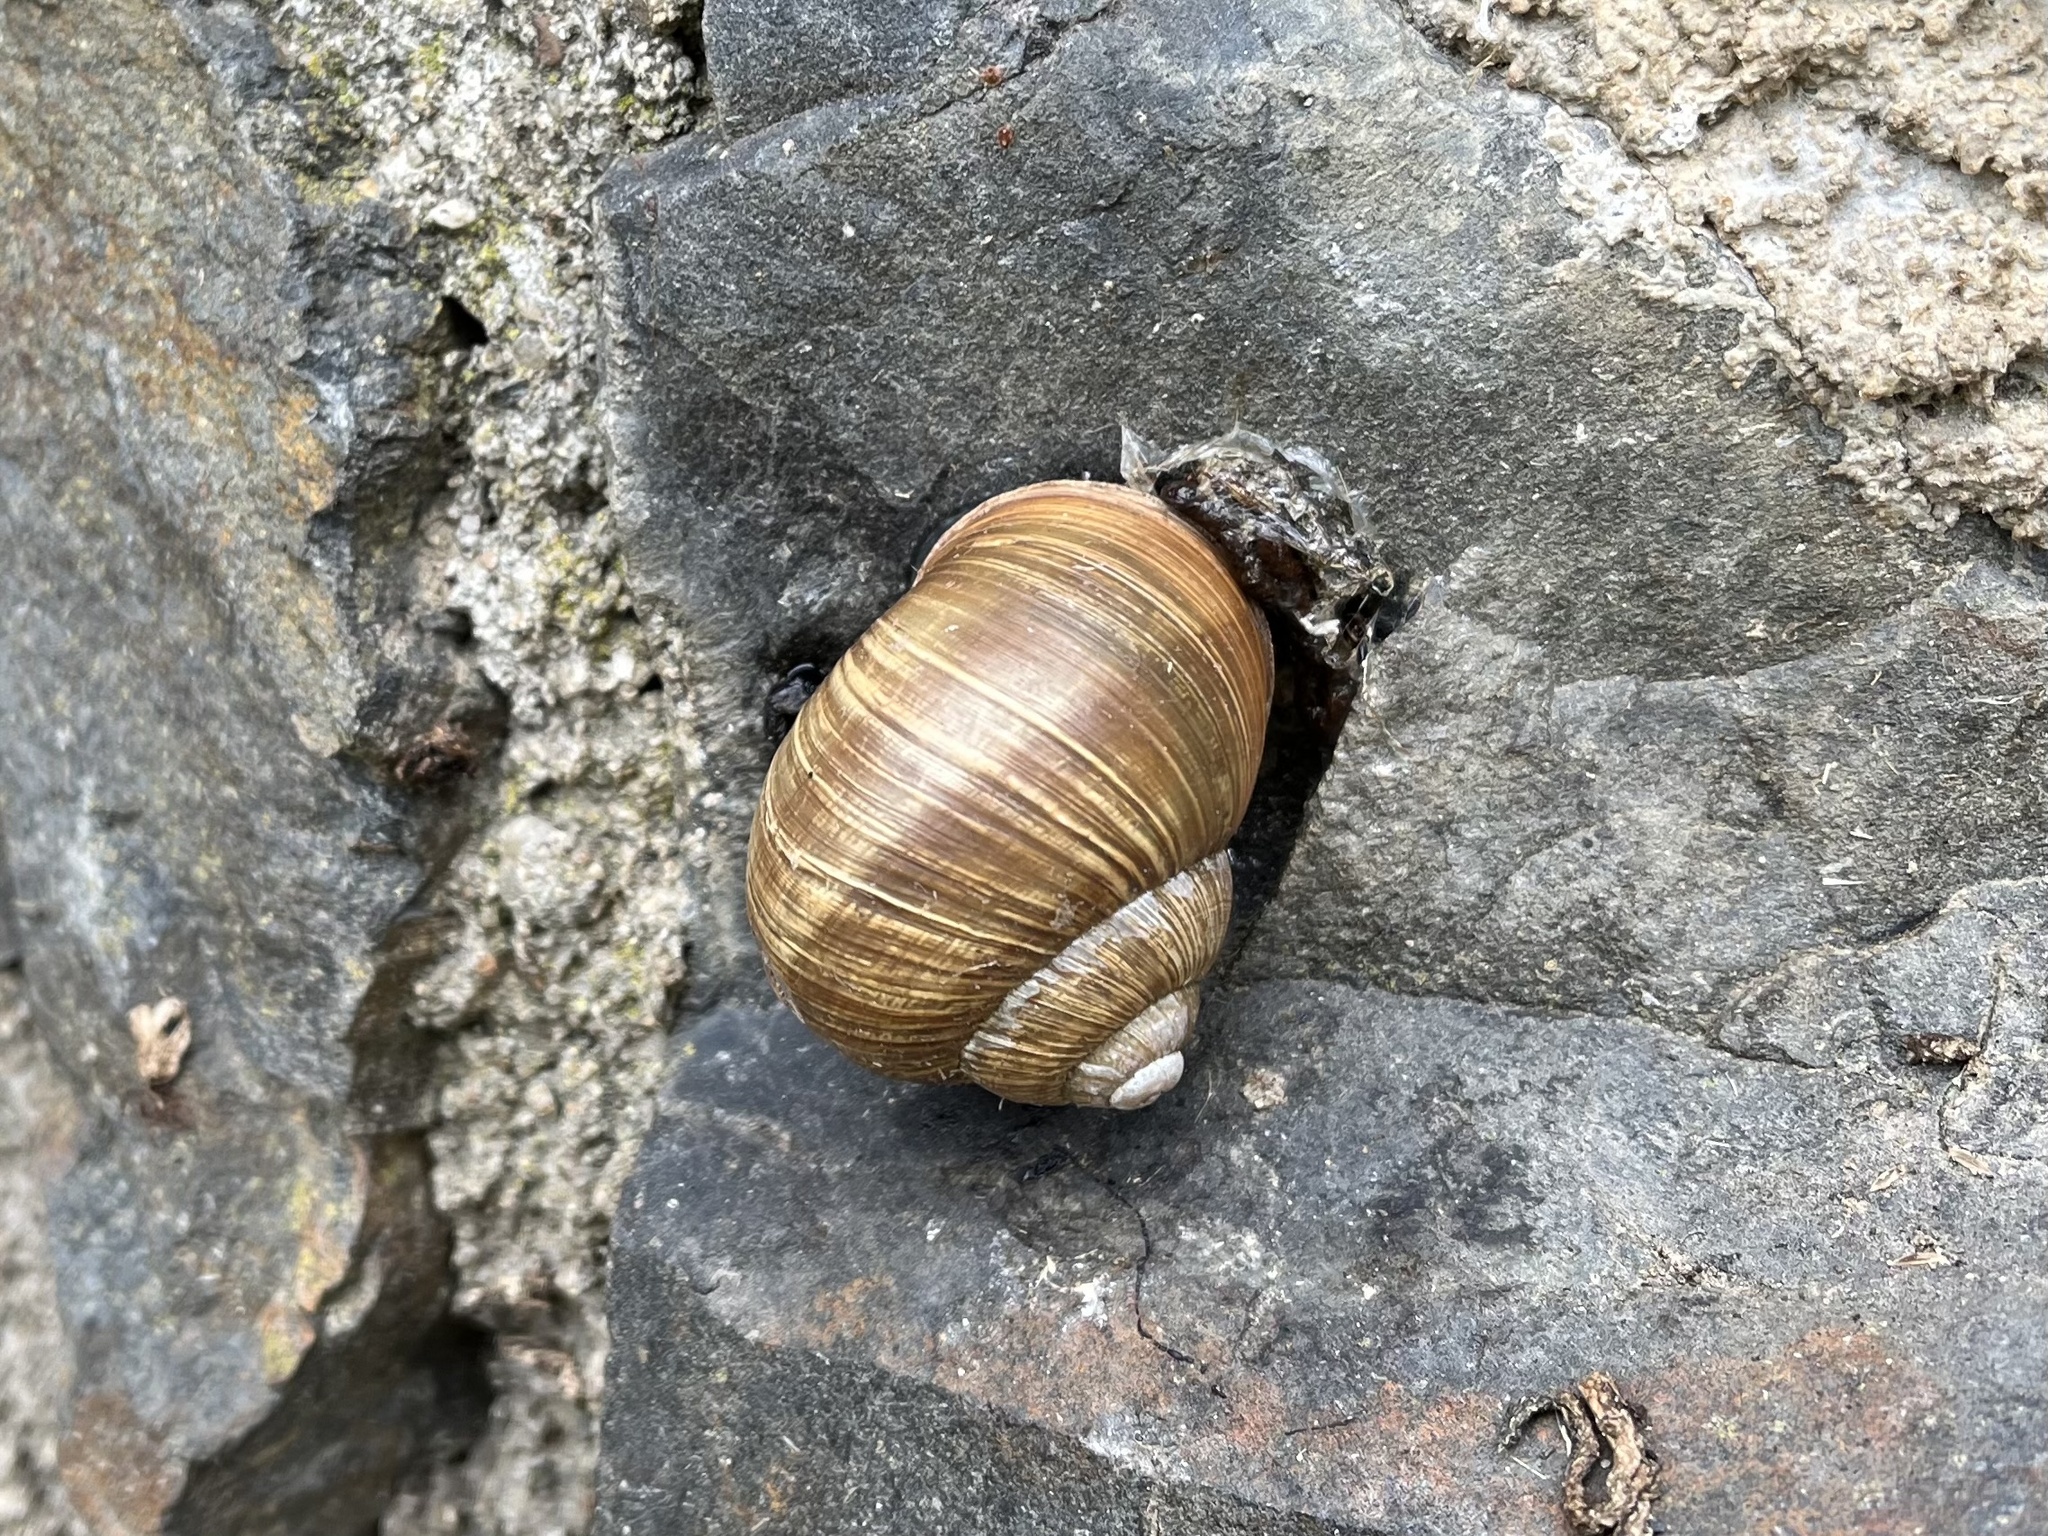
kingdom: Animalia
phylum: Mollusca
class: Gastropoda
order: Stylommatophora
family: Helicidae
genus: Helix
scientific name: Helix pomatia
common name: Roman snail
